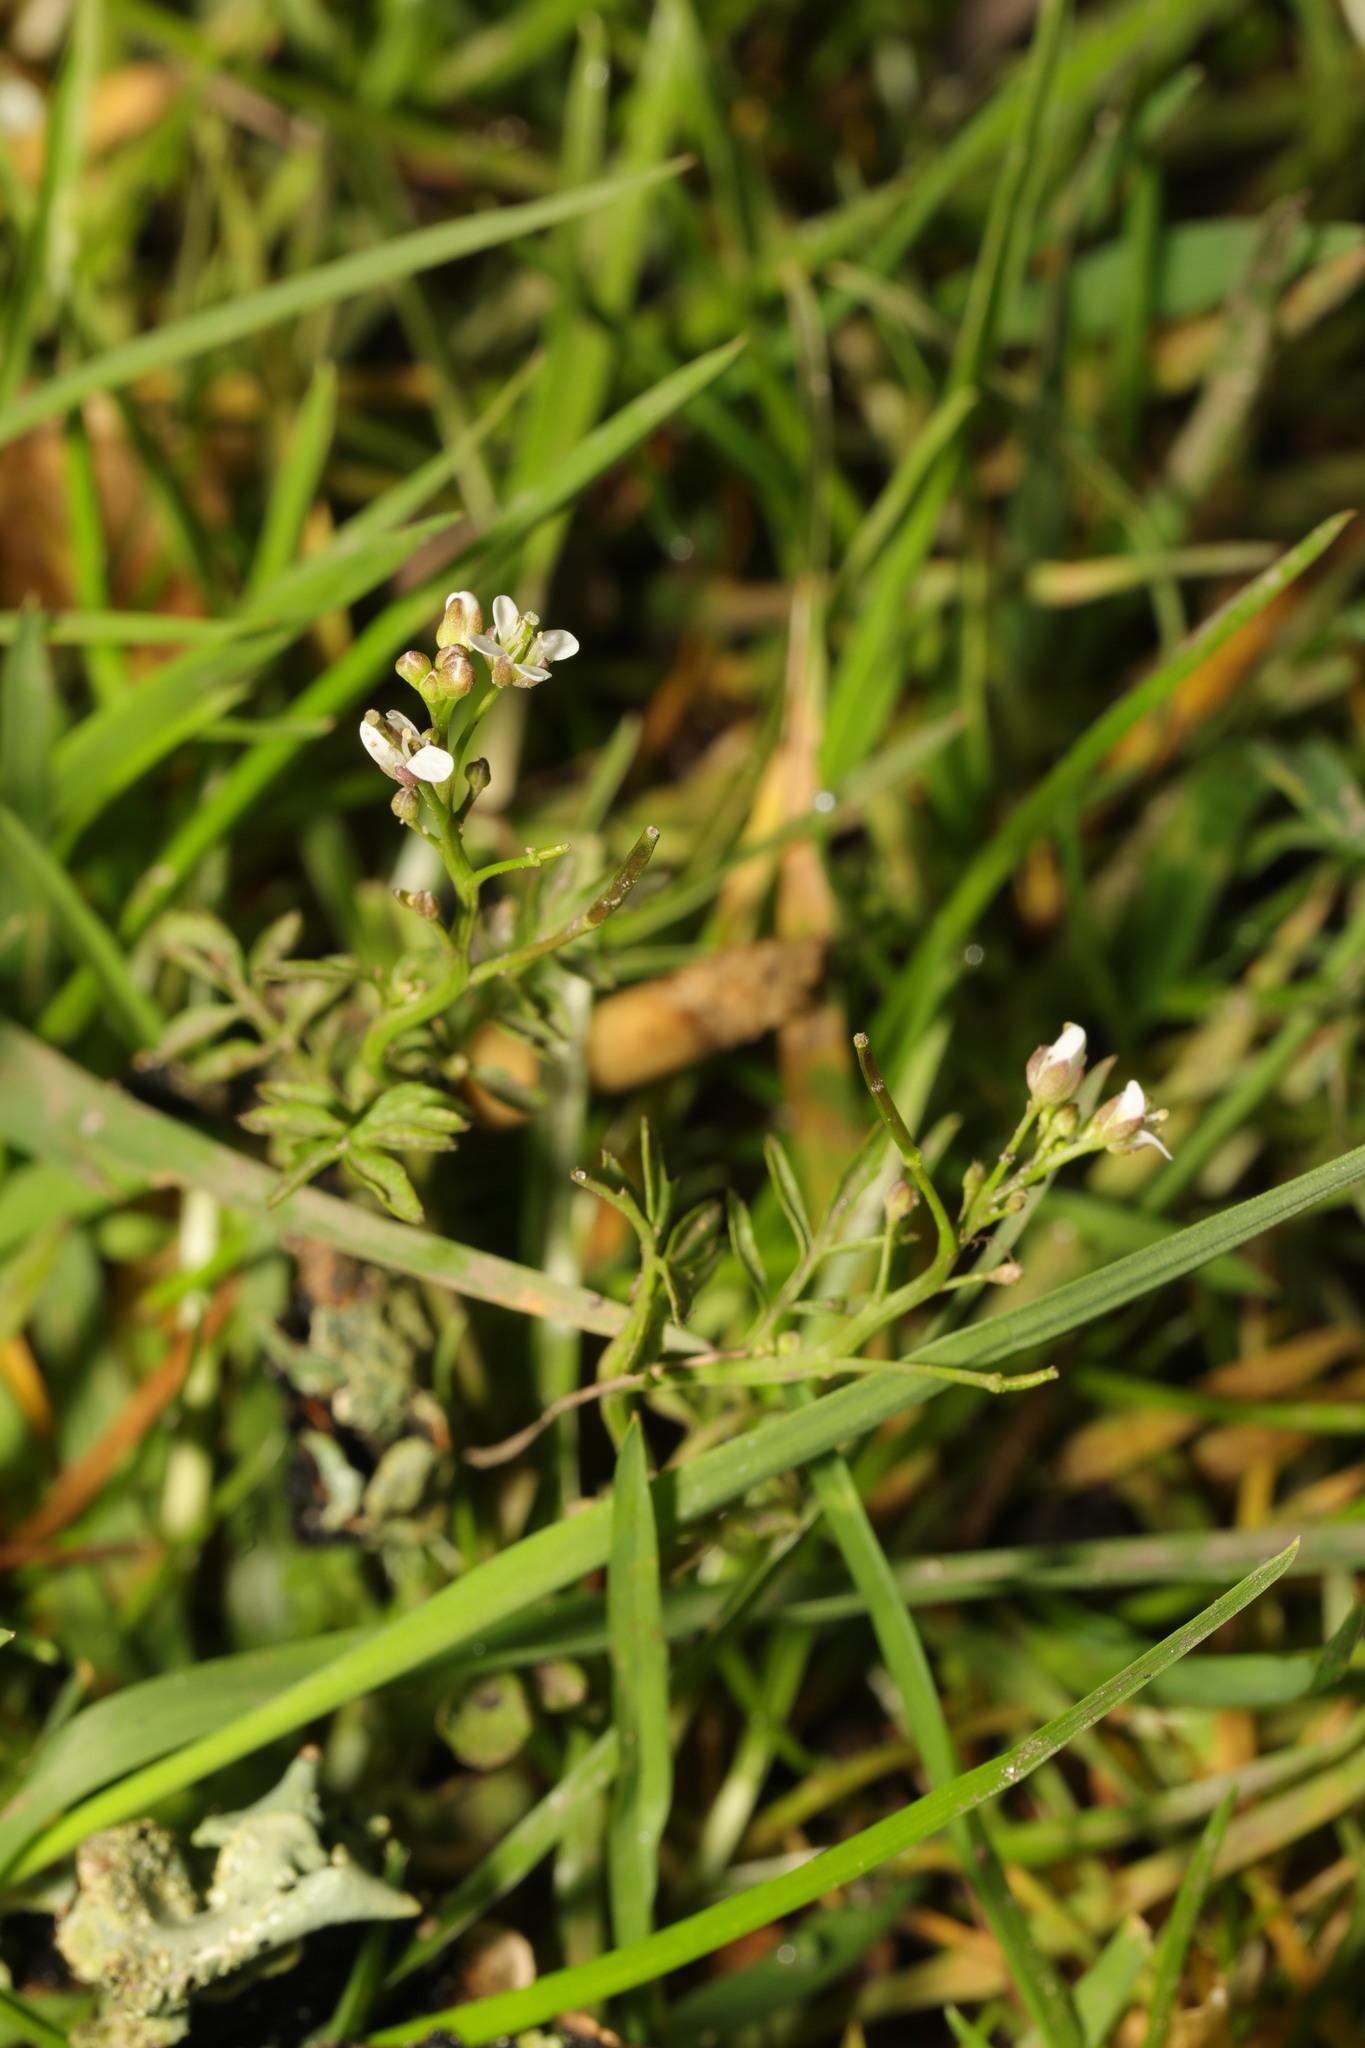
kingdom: Plantae
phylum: Tracheophyta
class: Magnoliopsida
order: Brassicales
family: Brassicaceae
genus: Cardamine
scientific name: Cardamine flexuosa
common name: Woodland bittercress
